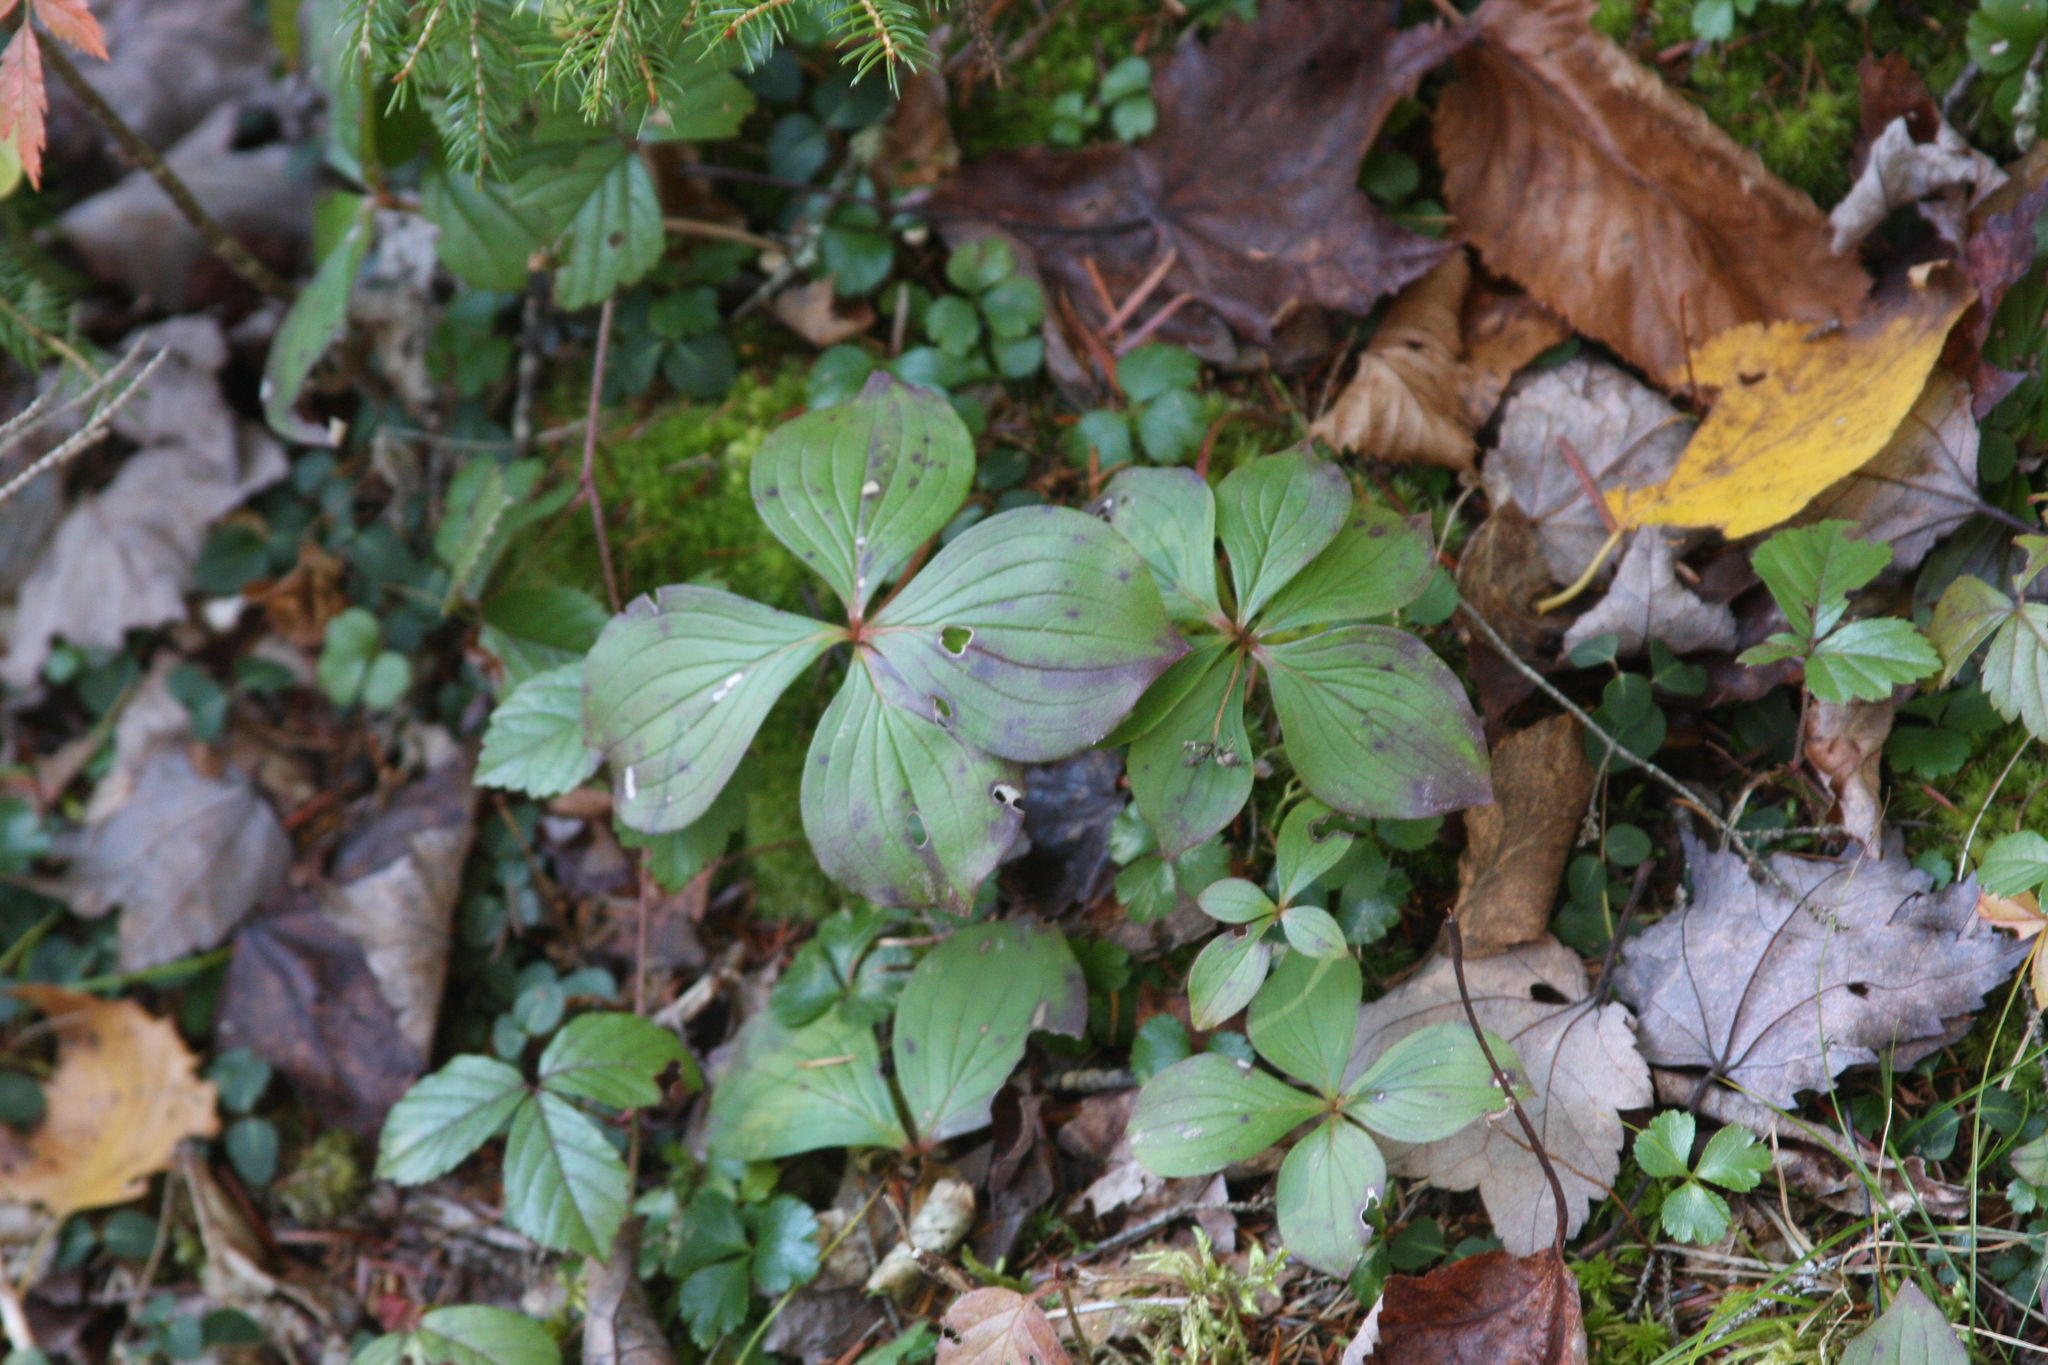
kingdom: Plantae
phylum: Tracheophyta
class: Magnoliopsida
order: Cornales
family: Cornaceae
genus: Cornus
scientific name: Cornus canadensis
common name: Creeping dogwood
